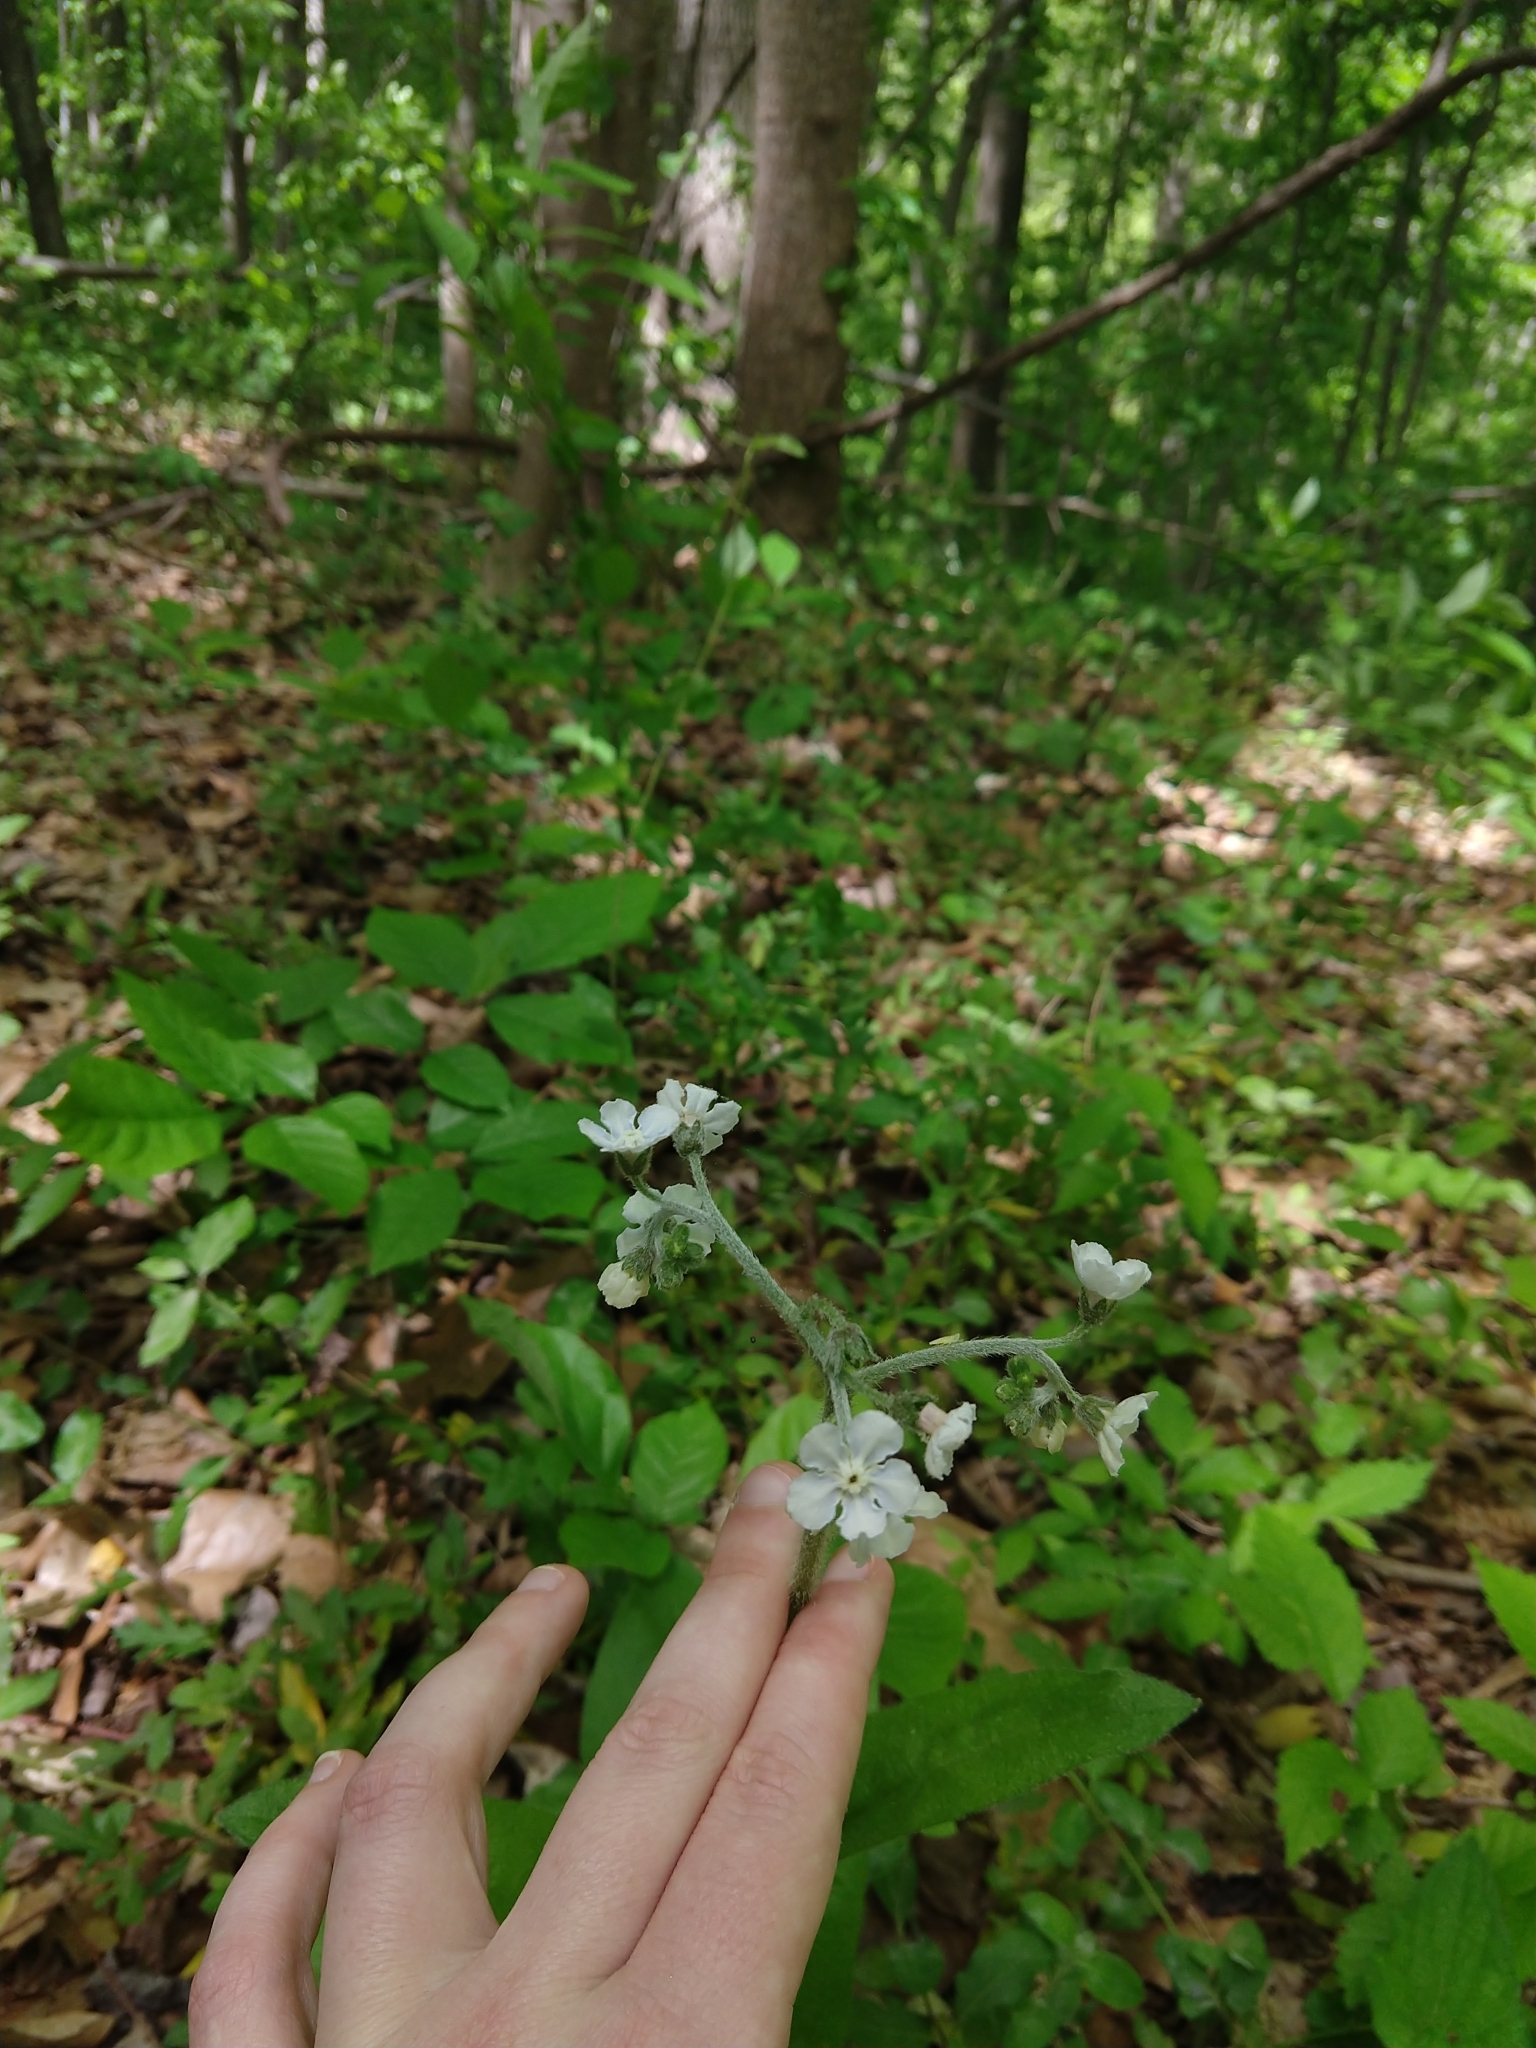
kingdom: Plantae
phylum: Tracheophyta
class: Magnoliopsida
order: Boraginales
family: Boraginaceae
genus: Andersonglossum
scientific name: Andersonglossum virginianum
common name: Wild comfrey
